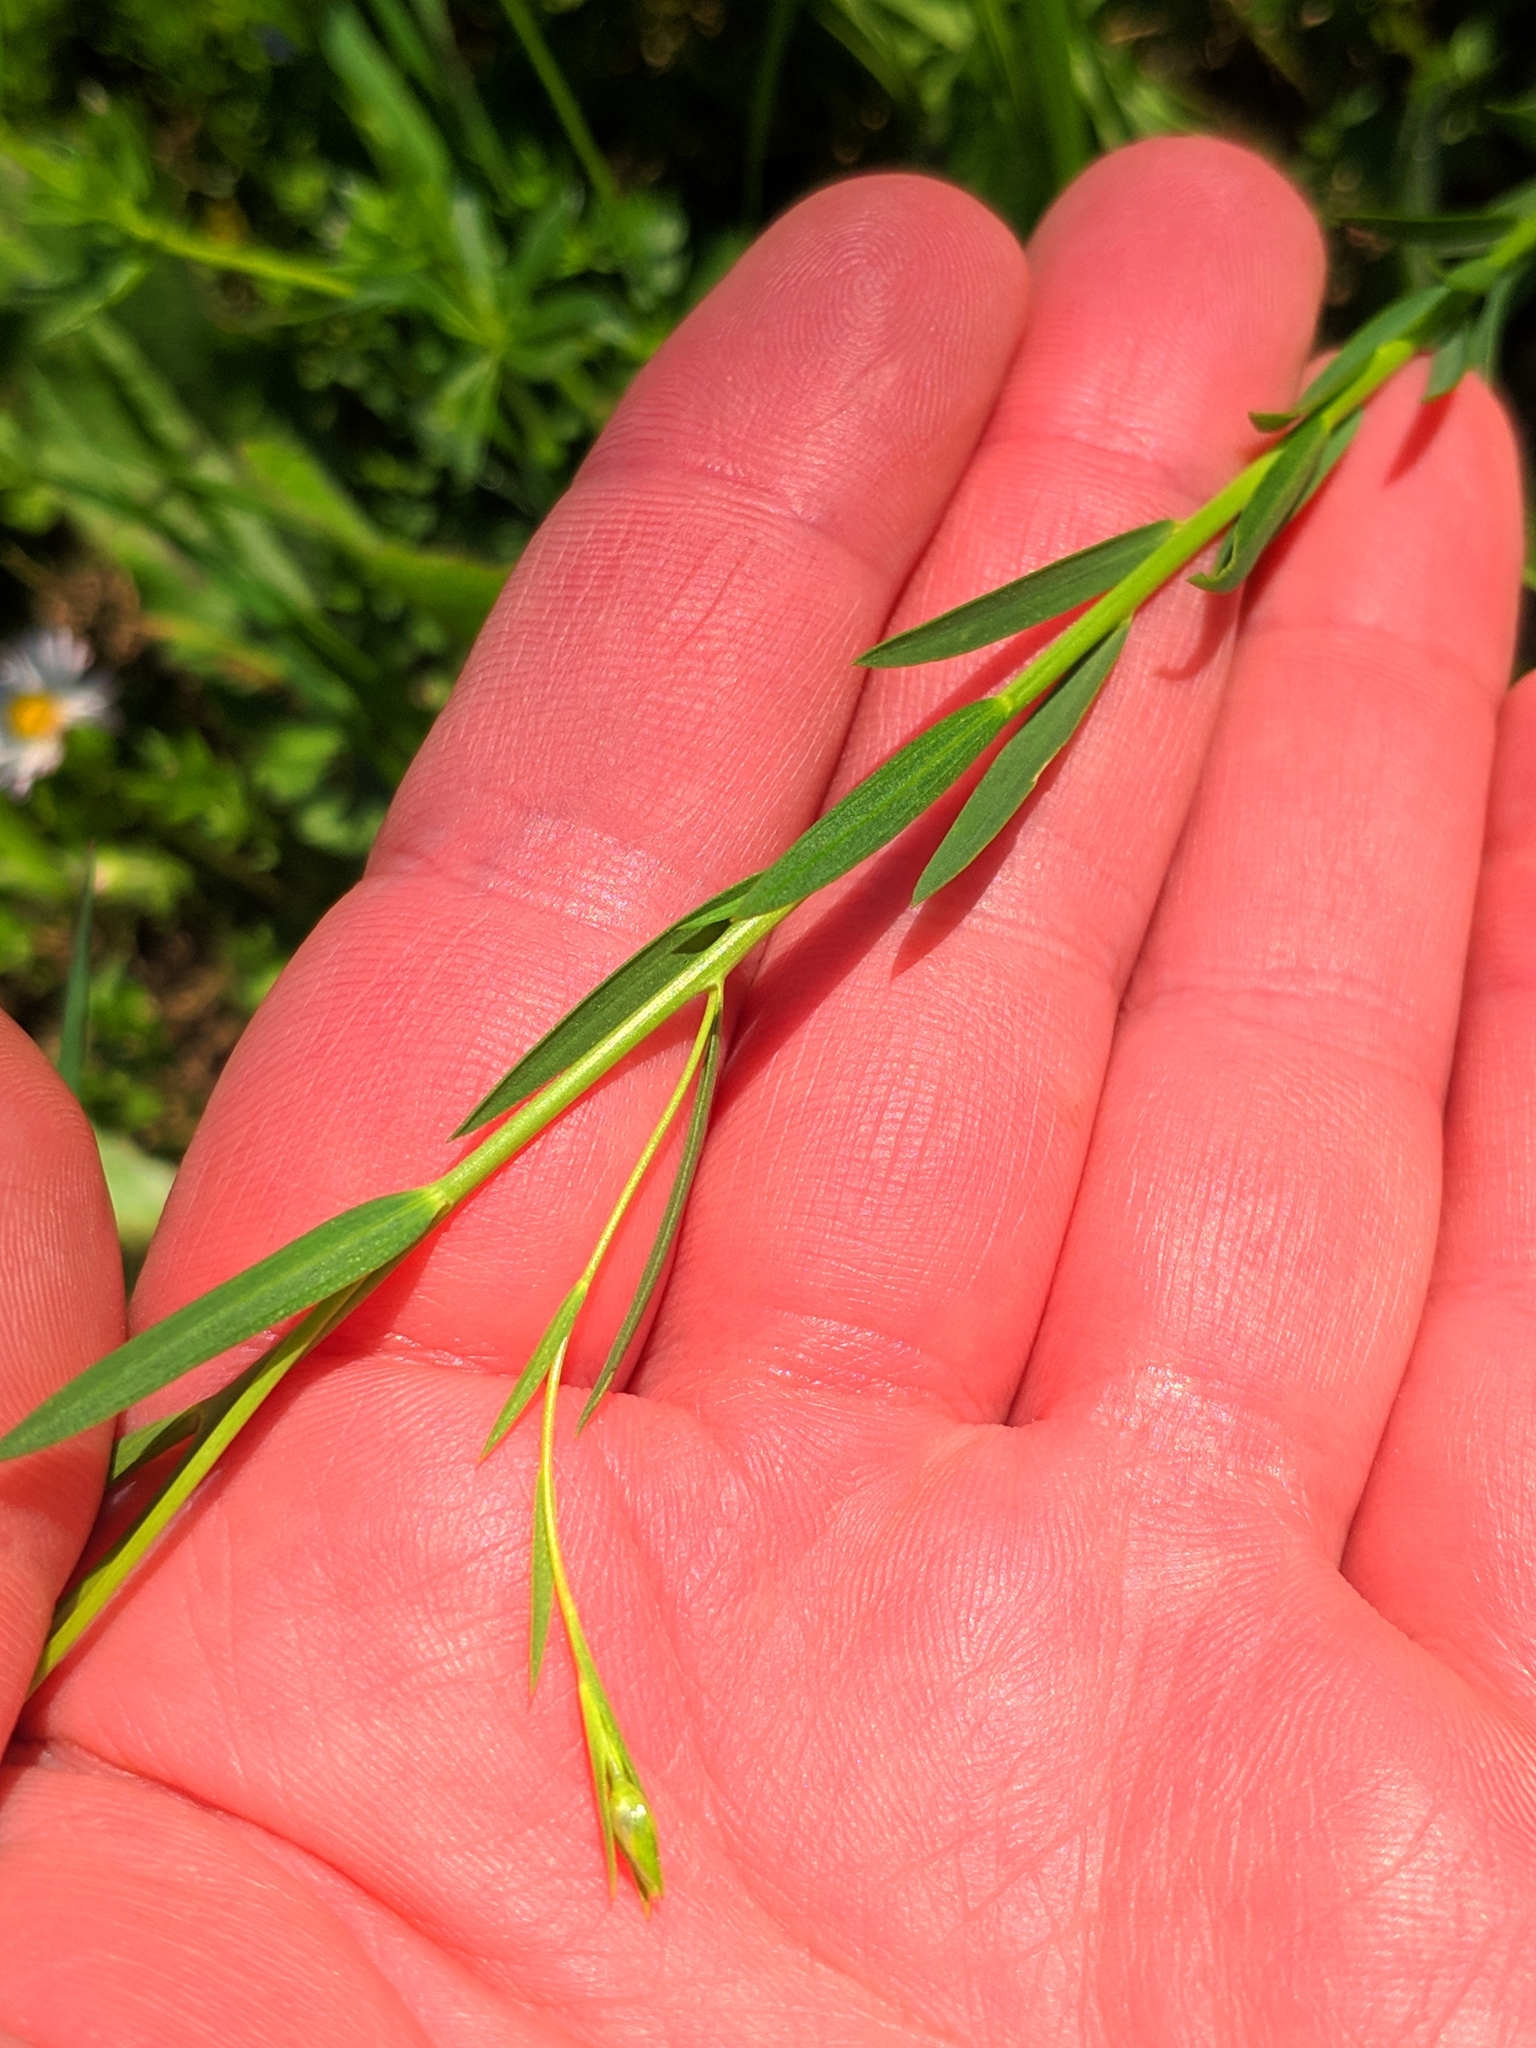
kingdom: Plantae
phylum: Tracheophyta
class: Magnoliopsida
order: Malpighiales
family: Linaceae
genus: Linum
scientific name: Linum bienne
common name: Pale flax
